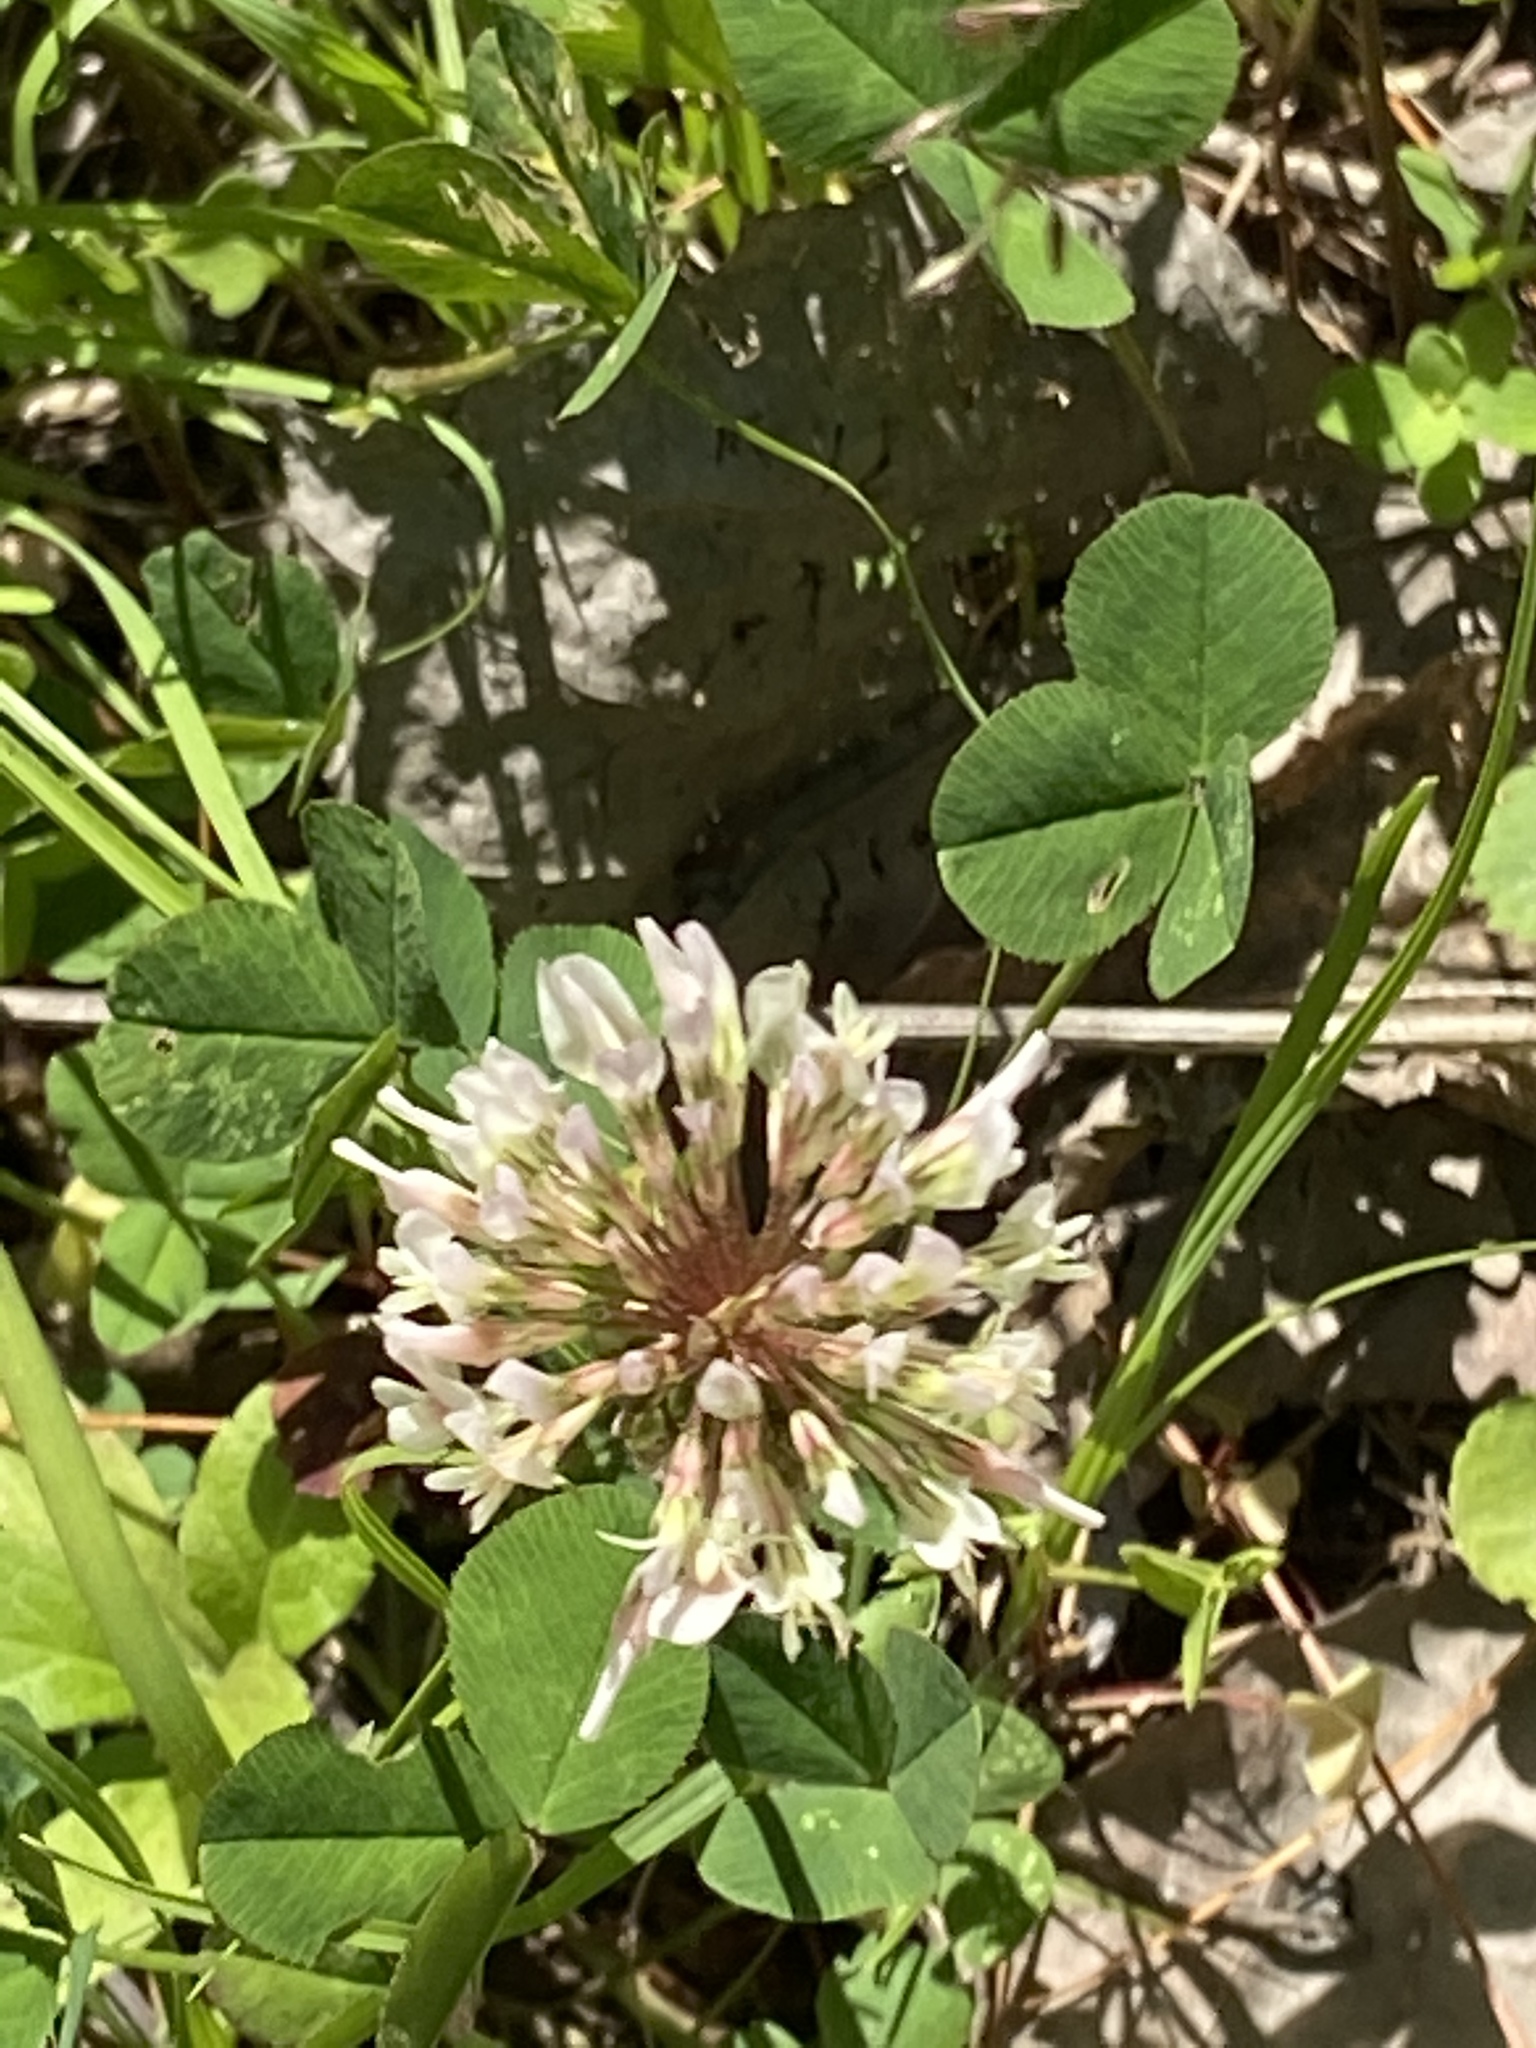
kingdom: Plantae
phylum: Tracheophyta
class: Magnoliopsida
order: Fabales
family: Fabaceae
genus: Trifolium
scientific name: Trifolium repens
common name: White clover
